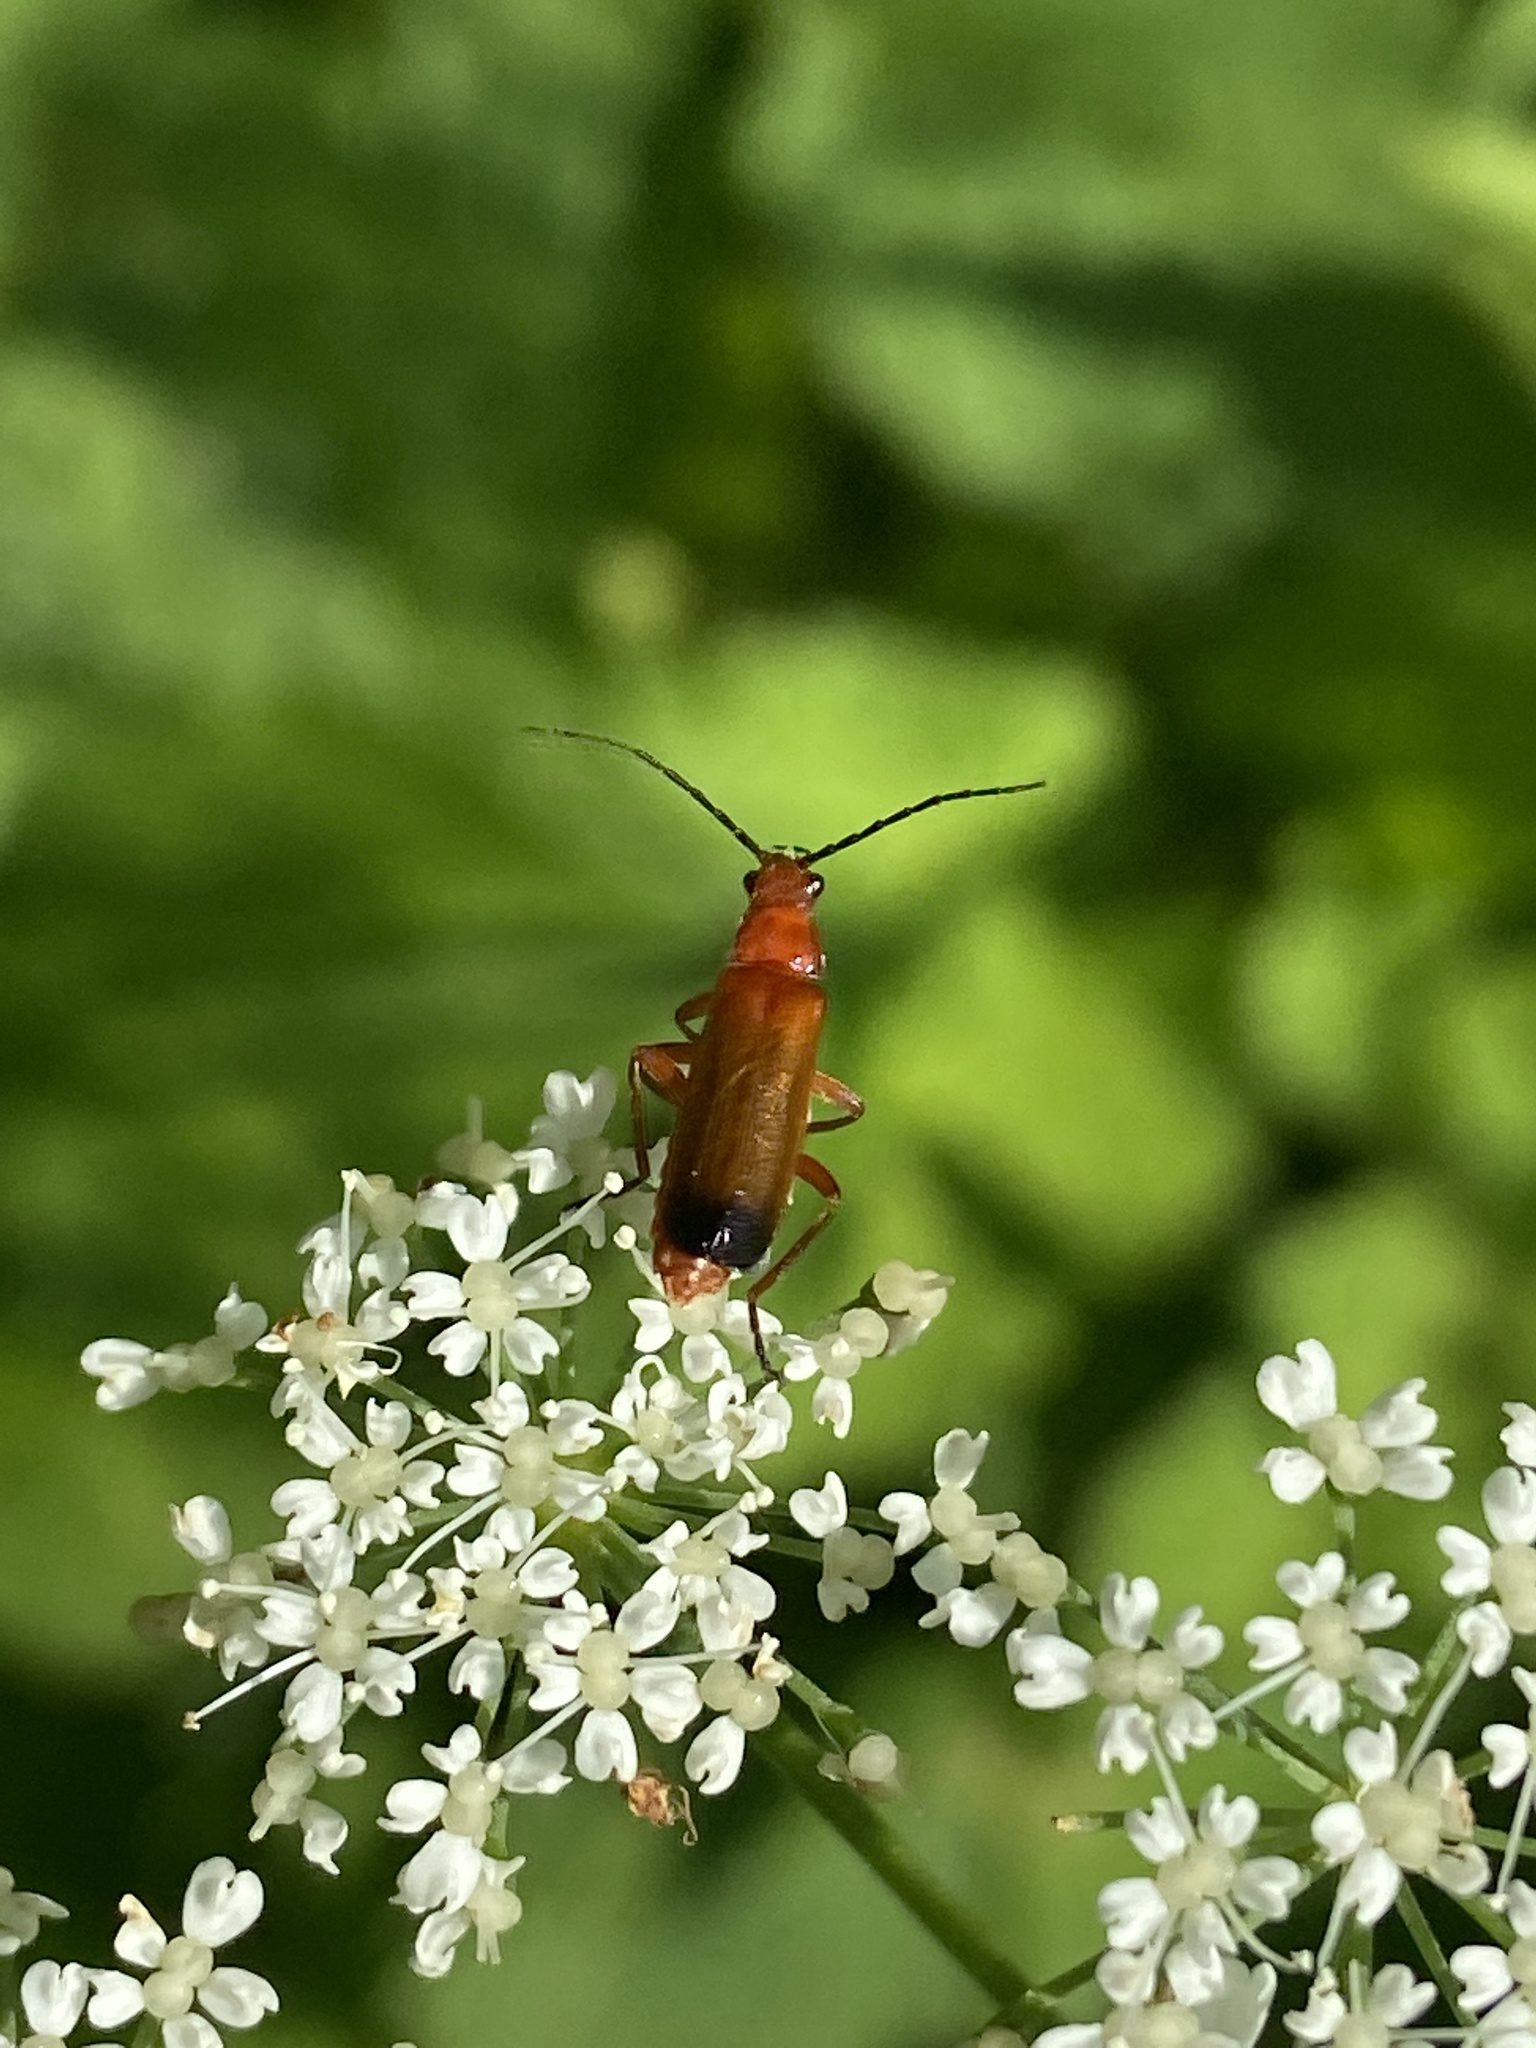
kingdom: Animalia
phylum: Arthropoda
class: Insecta
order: Coleoptera
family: Cantharidae
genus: Rhagonycha
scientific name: Rhagonycha fulva
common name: Common red soldier beetle
